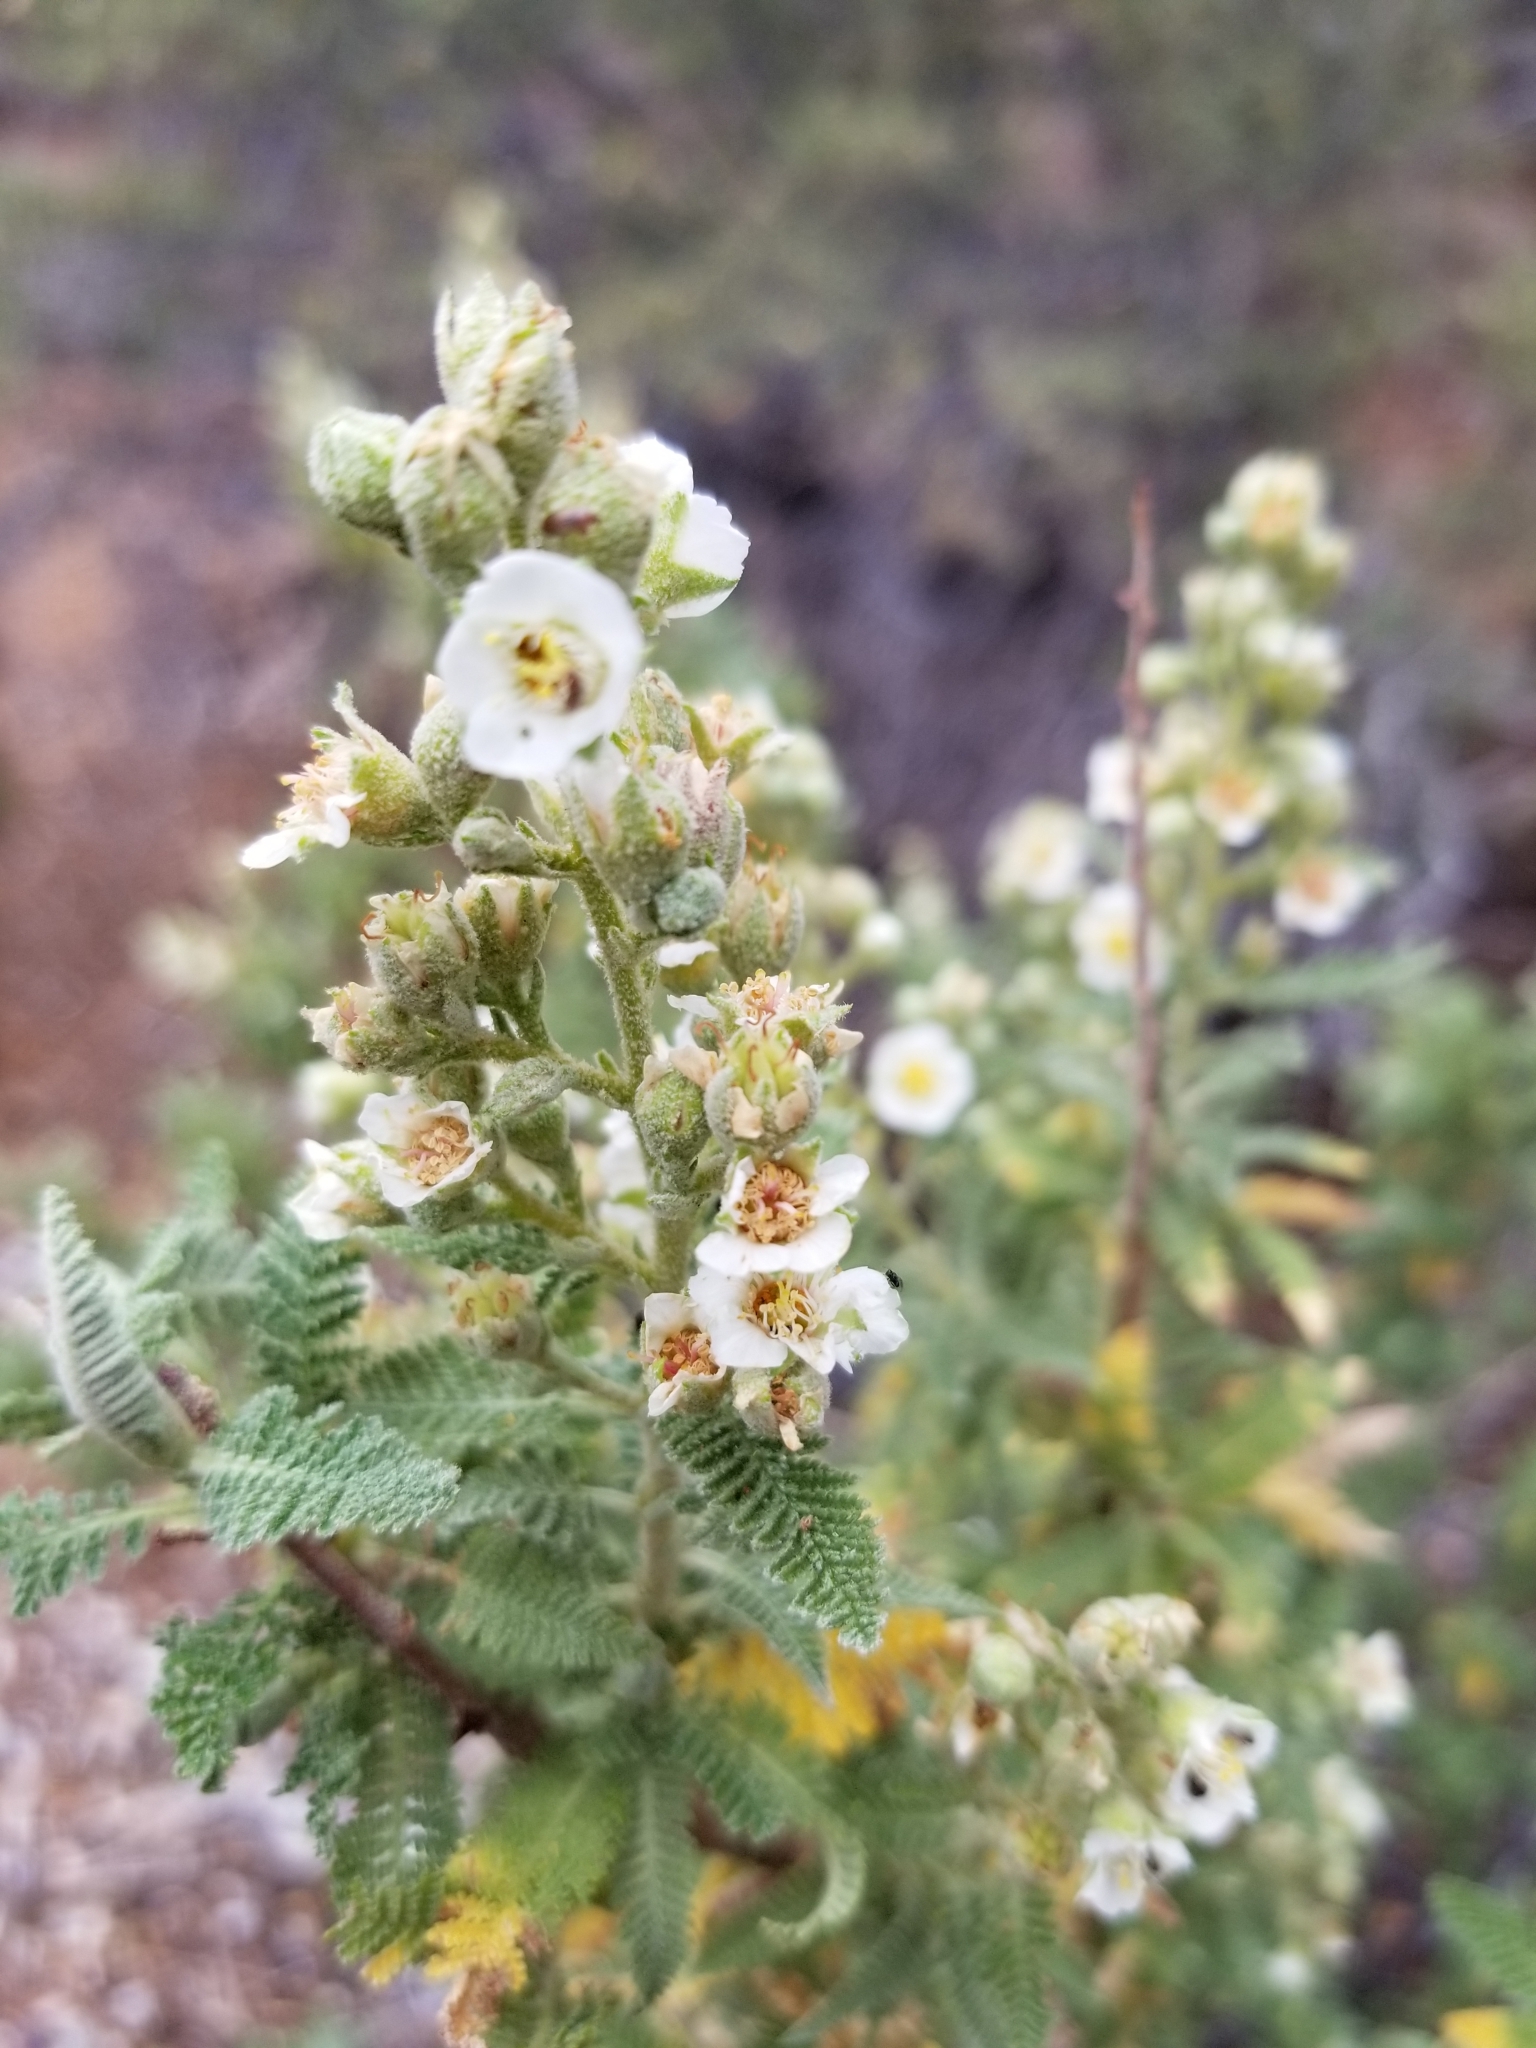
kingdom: Plantae
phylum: Tracheophyta
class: Magnoliopsida
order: Rosales
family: Rosaceae
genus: Chamaebatiaria
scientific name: Chamaebatiaria millefolium
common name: Fernbush
